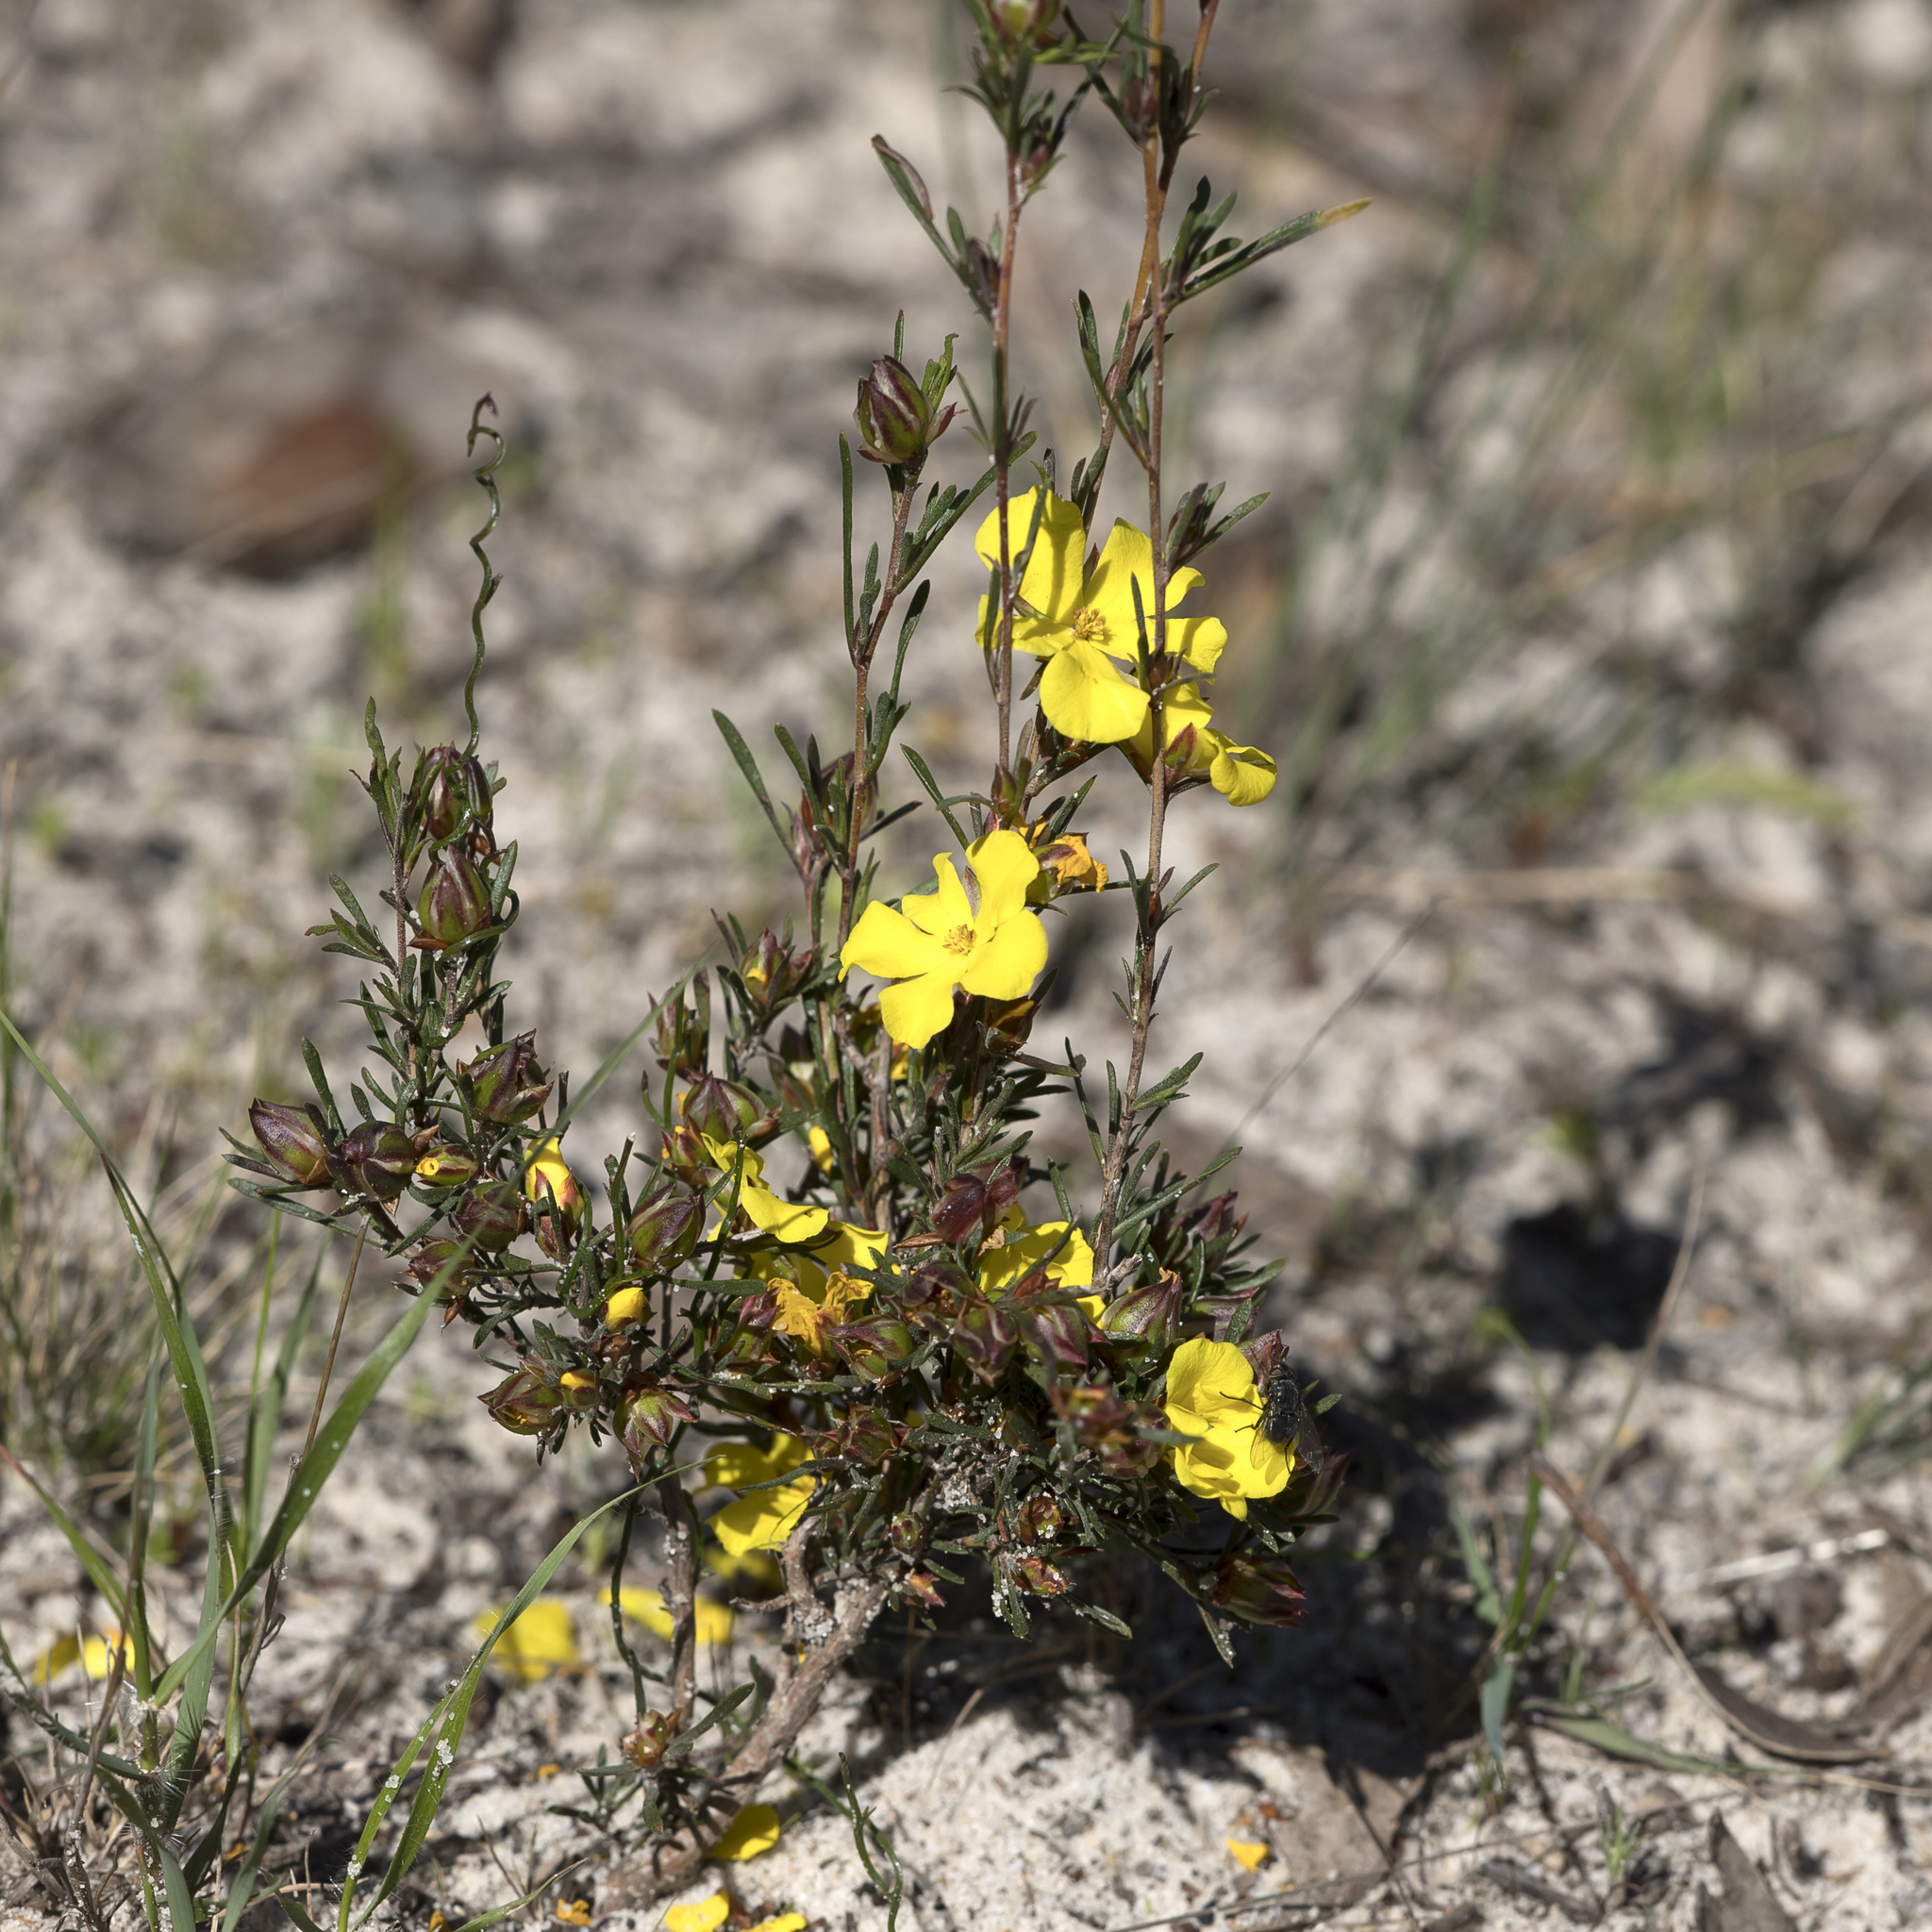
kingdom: Plantae
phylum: Tracheophyta
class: Magnoliopsida
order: Dilleniales
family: Dilleniaceae
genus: Hibbertia
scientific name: Hibbertia virgata
